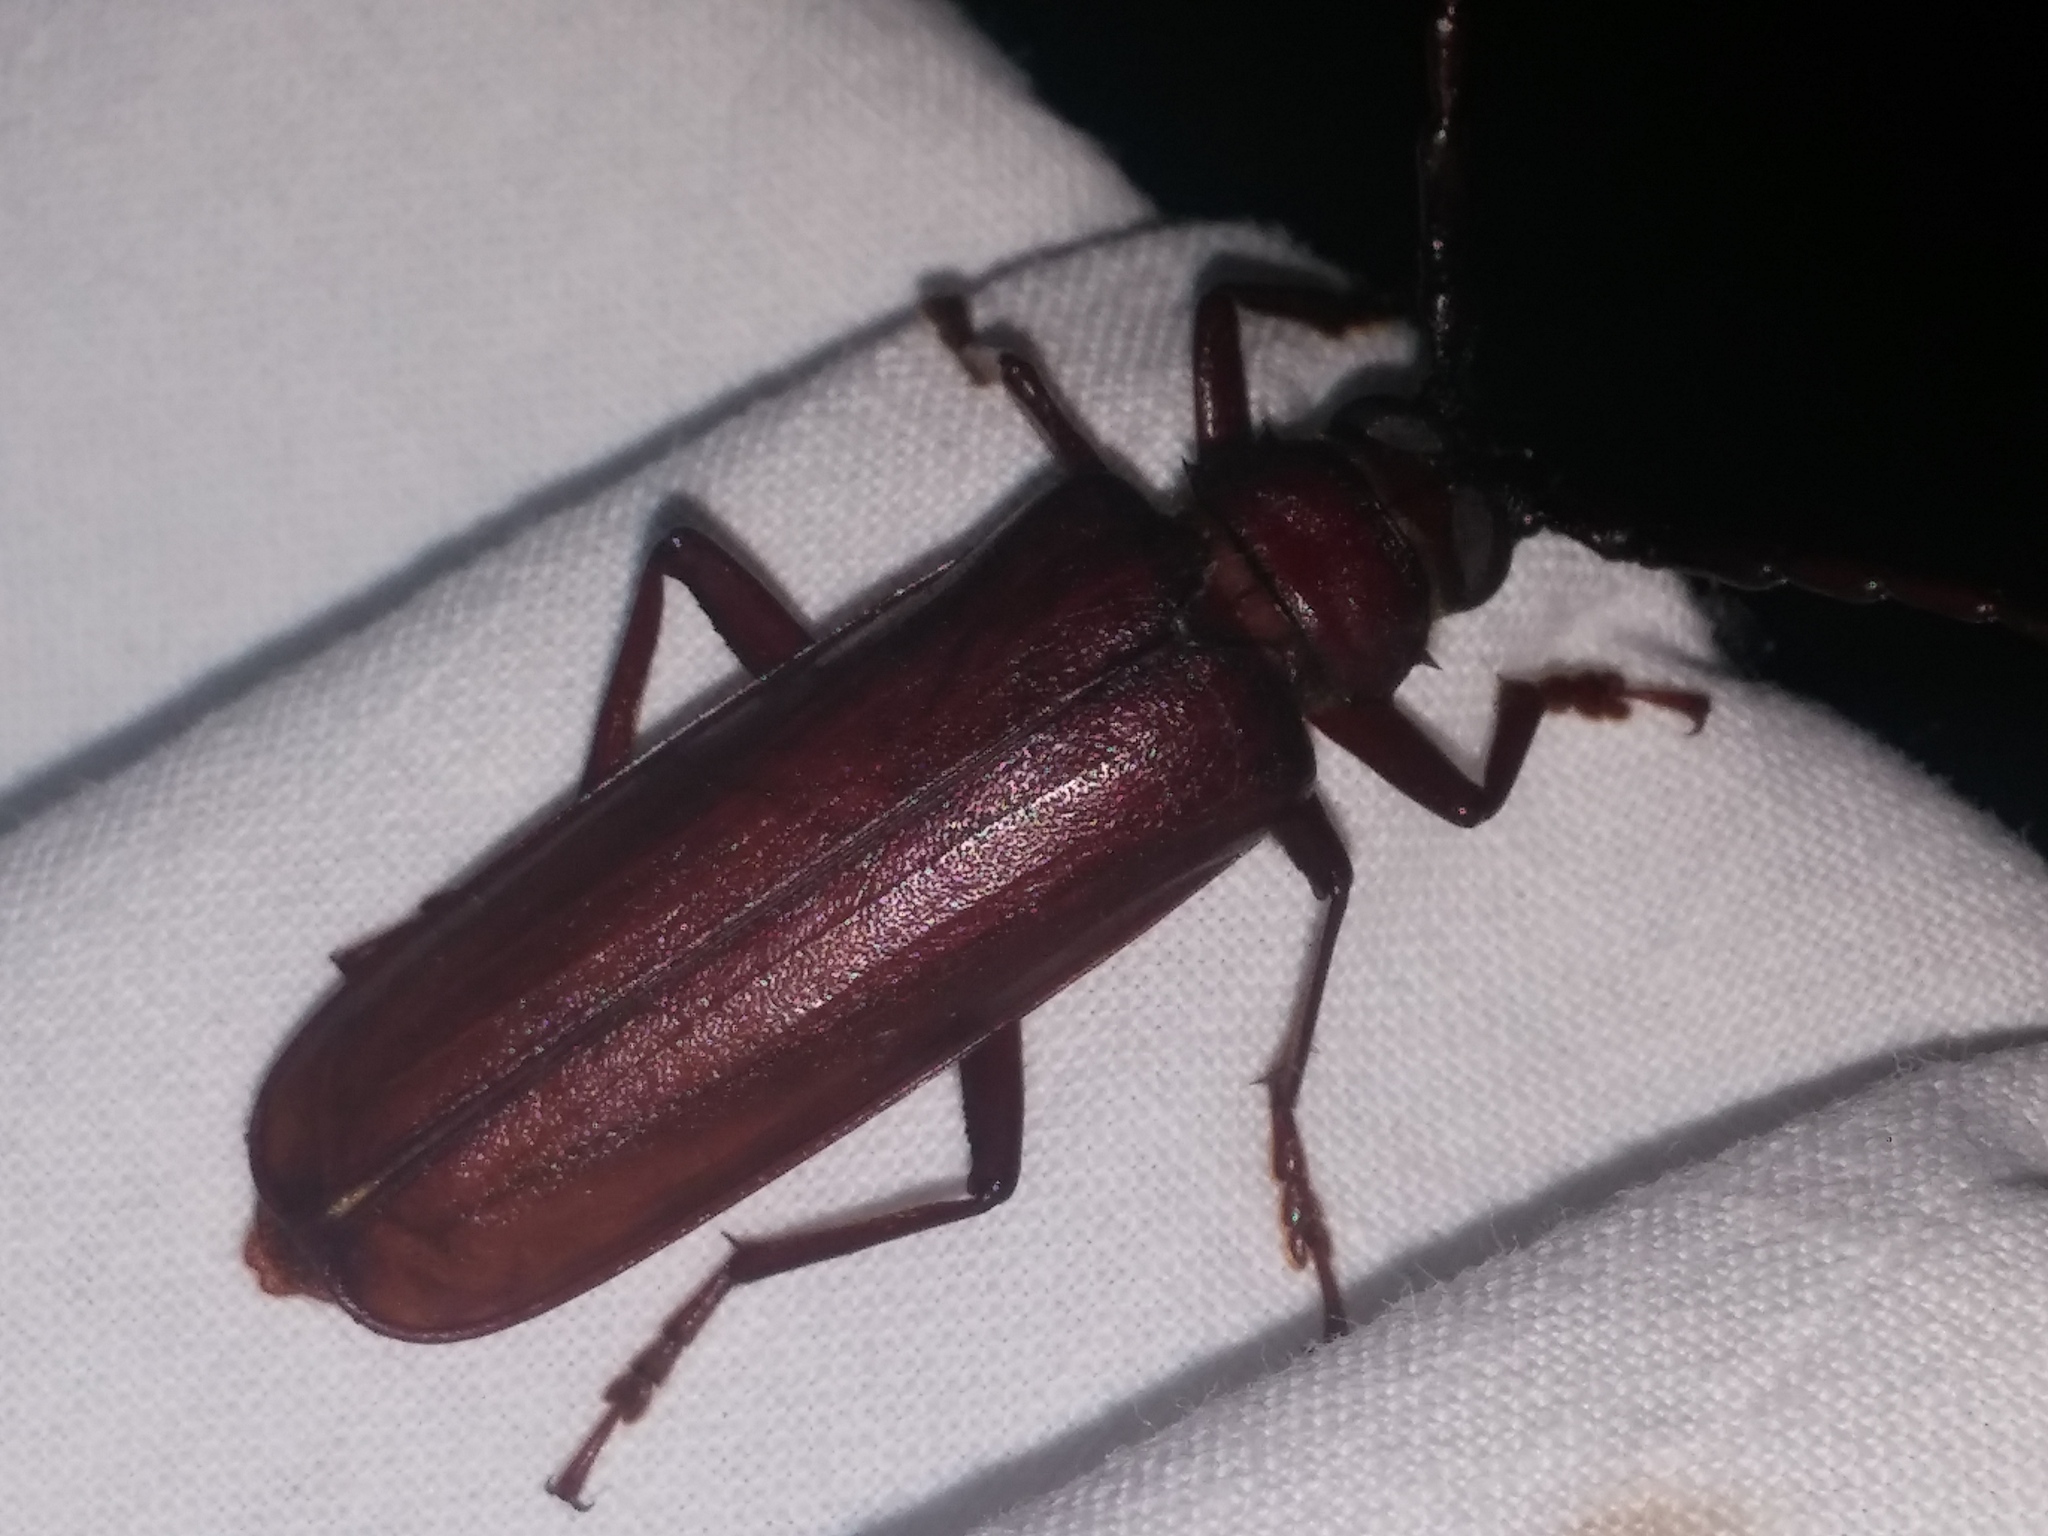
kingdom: Animalia
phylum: Arthropoda
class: Insecta
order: Coleoptera
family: Cerambycidae
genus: Orthosoma
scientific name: Orthosoma brunneum
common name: Brown prionid beetle
